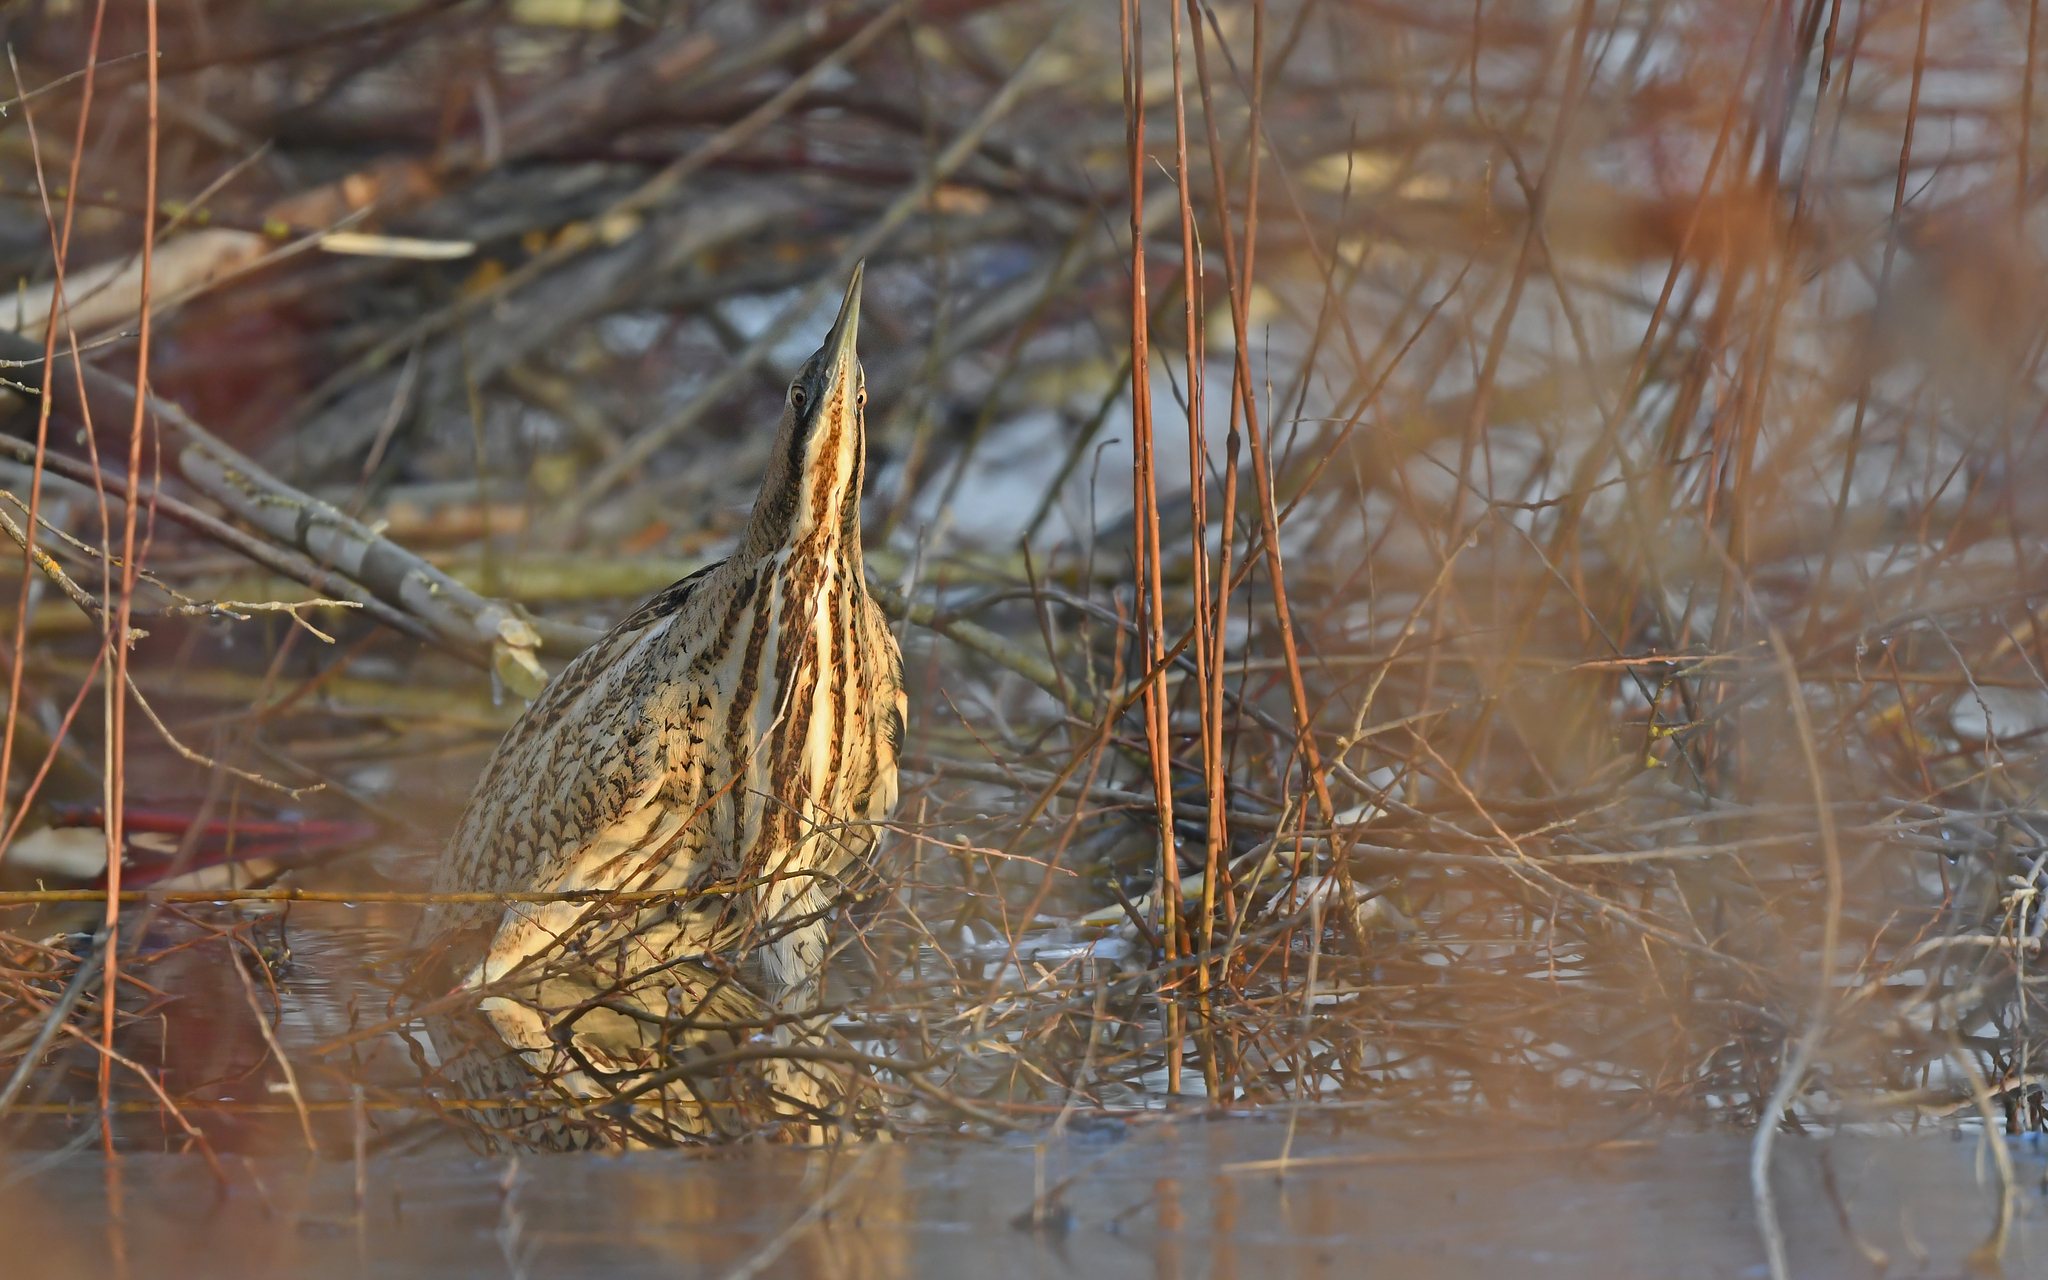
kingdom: Animalia
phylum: Chordata
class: Aves
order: Pelecaniformes
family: Ardeidae
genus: Botaurus
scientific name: Botaurus stellaris
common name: Eurasian bittern
